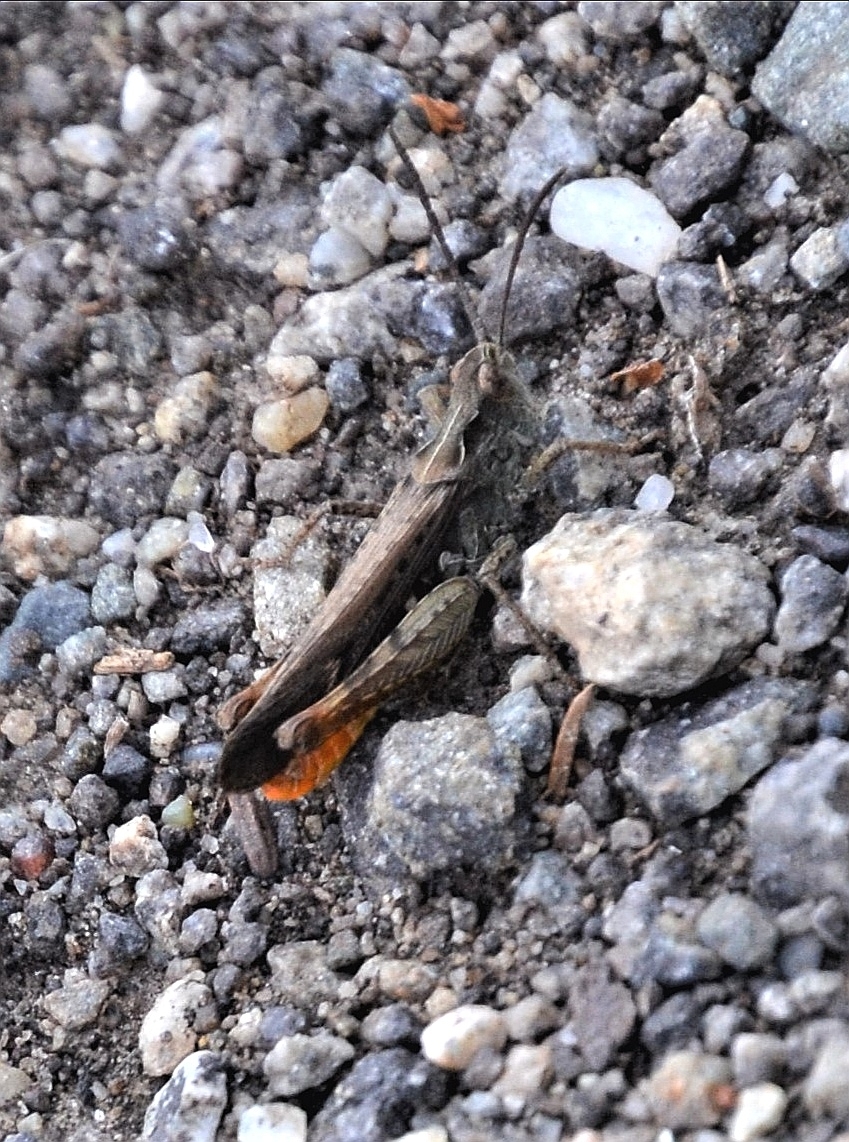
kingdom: Animalia
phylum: Arthropoda
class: Insecta
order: Orthoptera
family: Acrididae
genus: Chorthippus
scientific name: Chorthippus brunneus
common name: Field grasshopper
